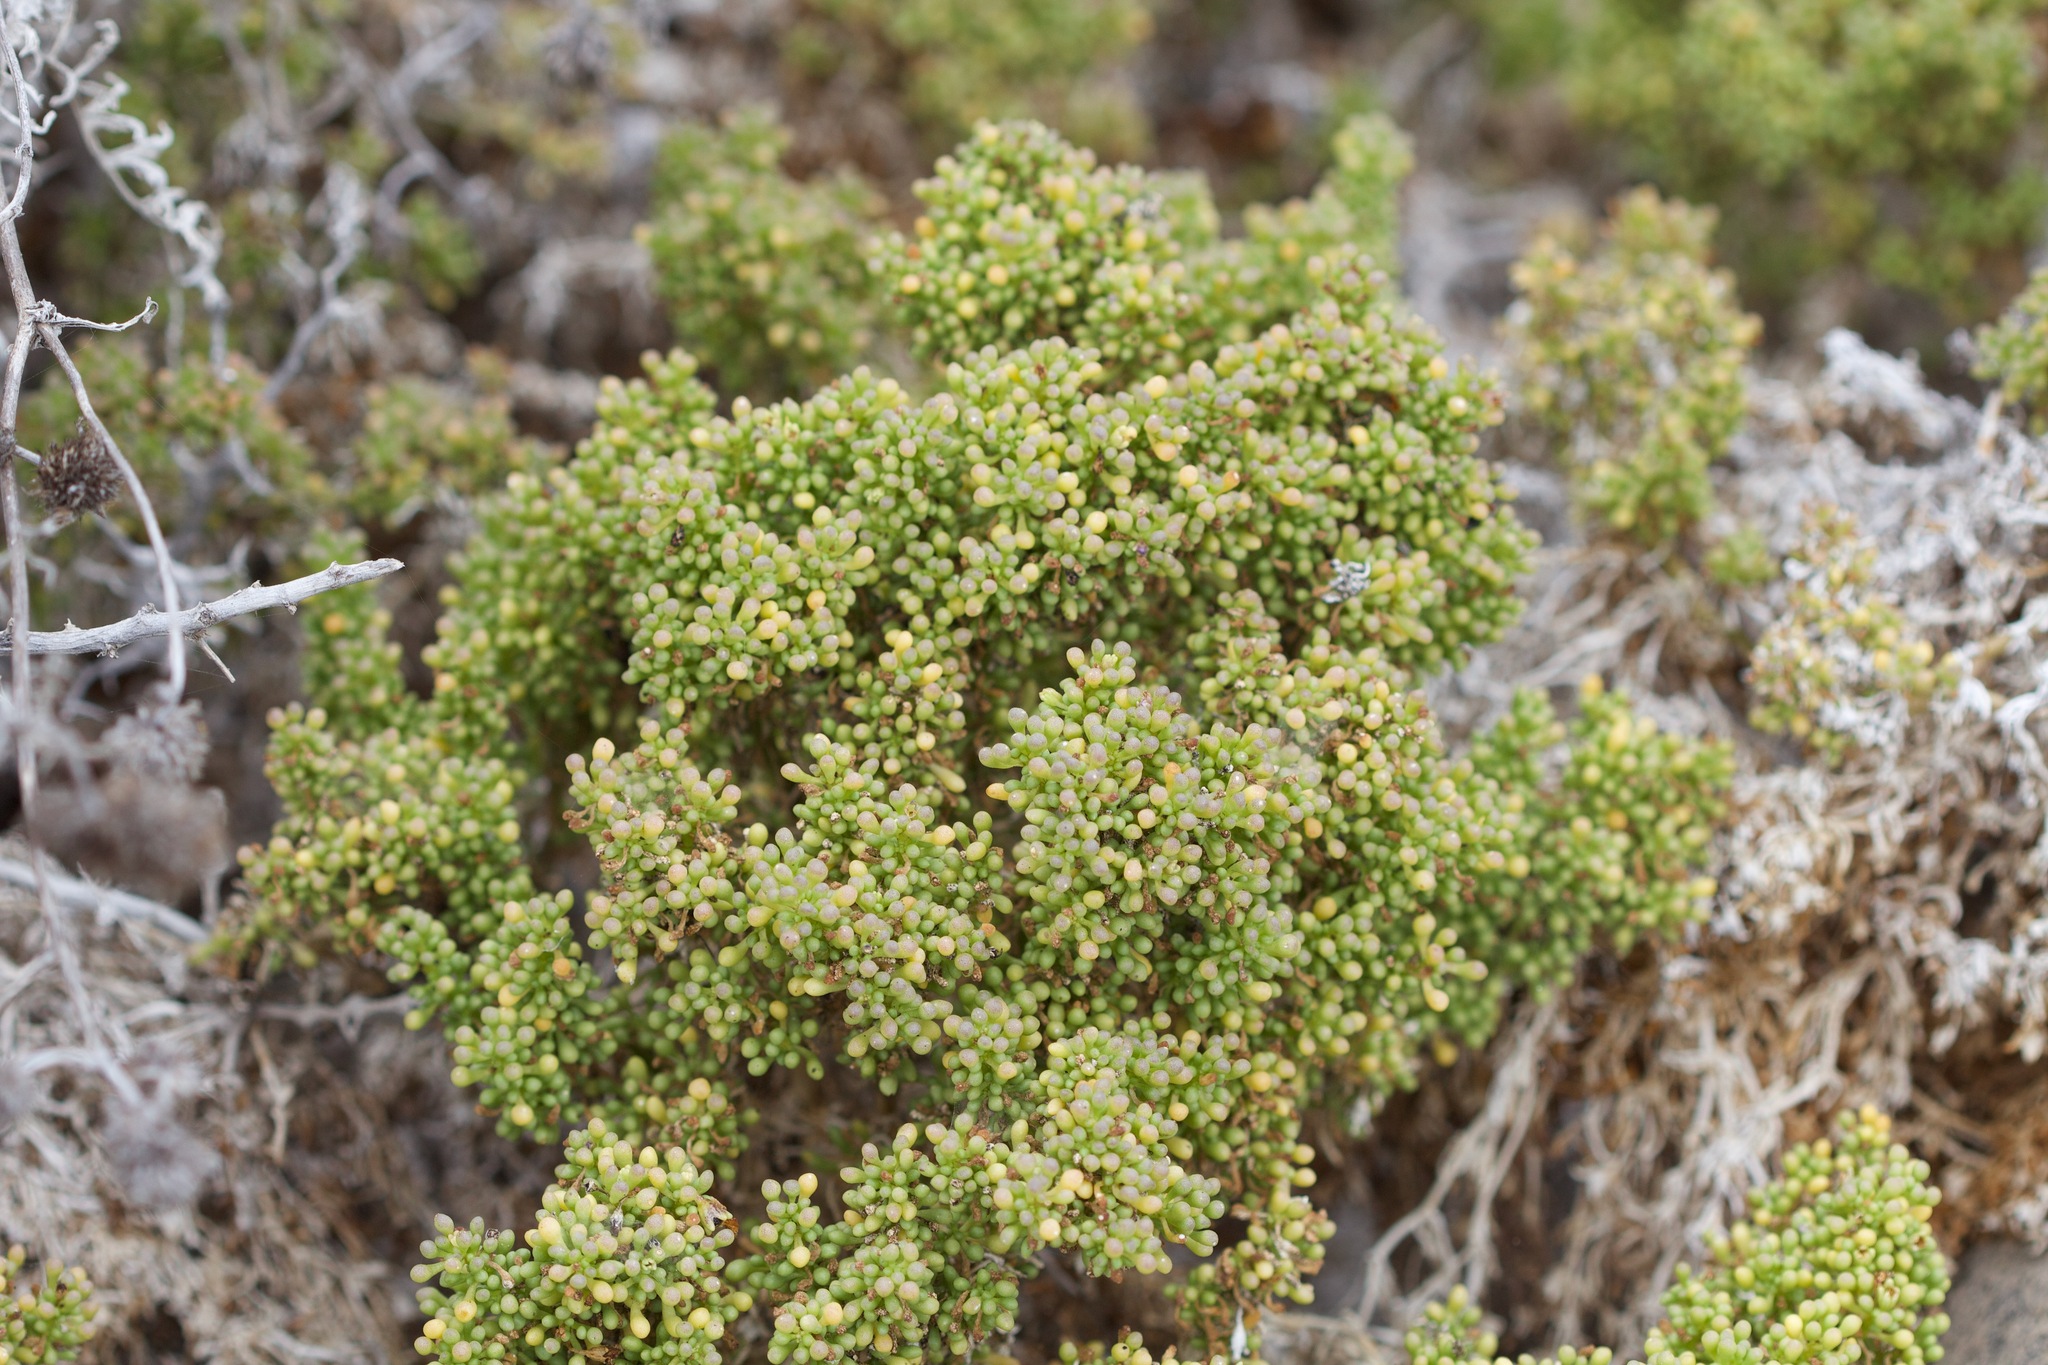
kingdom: Plantae
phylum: Tracheophyta
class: Magnoliopsida
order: Solanales
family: Solanaceae
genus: Nolana
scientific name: Nolana divaricata
